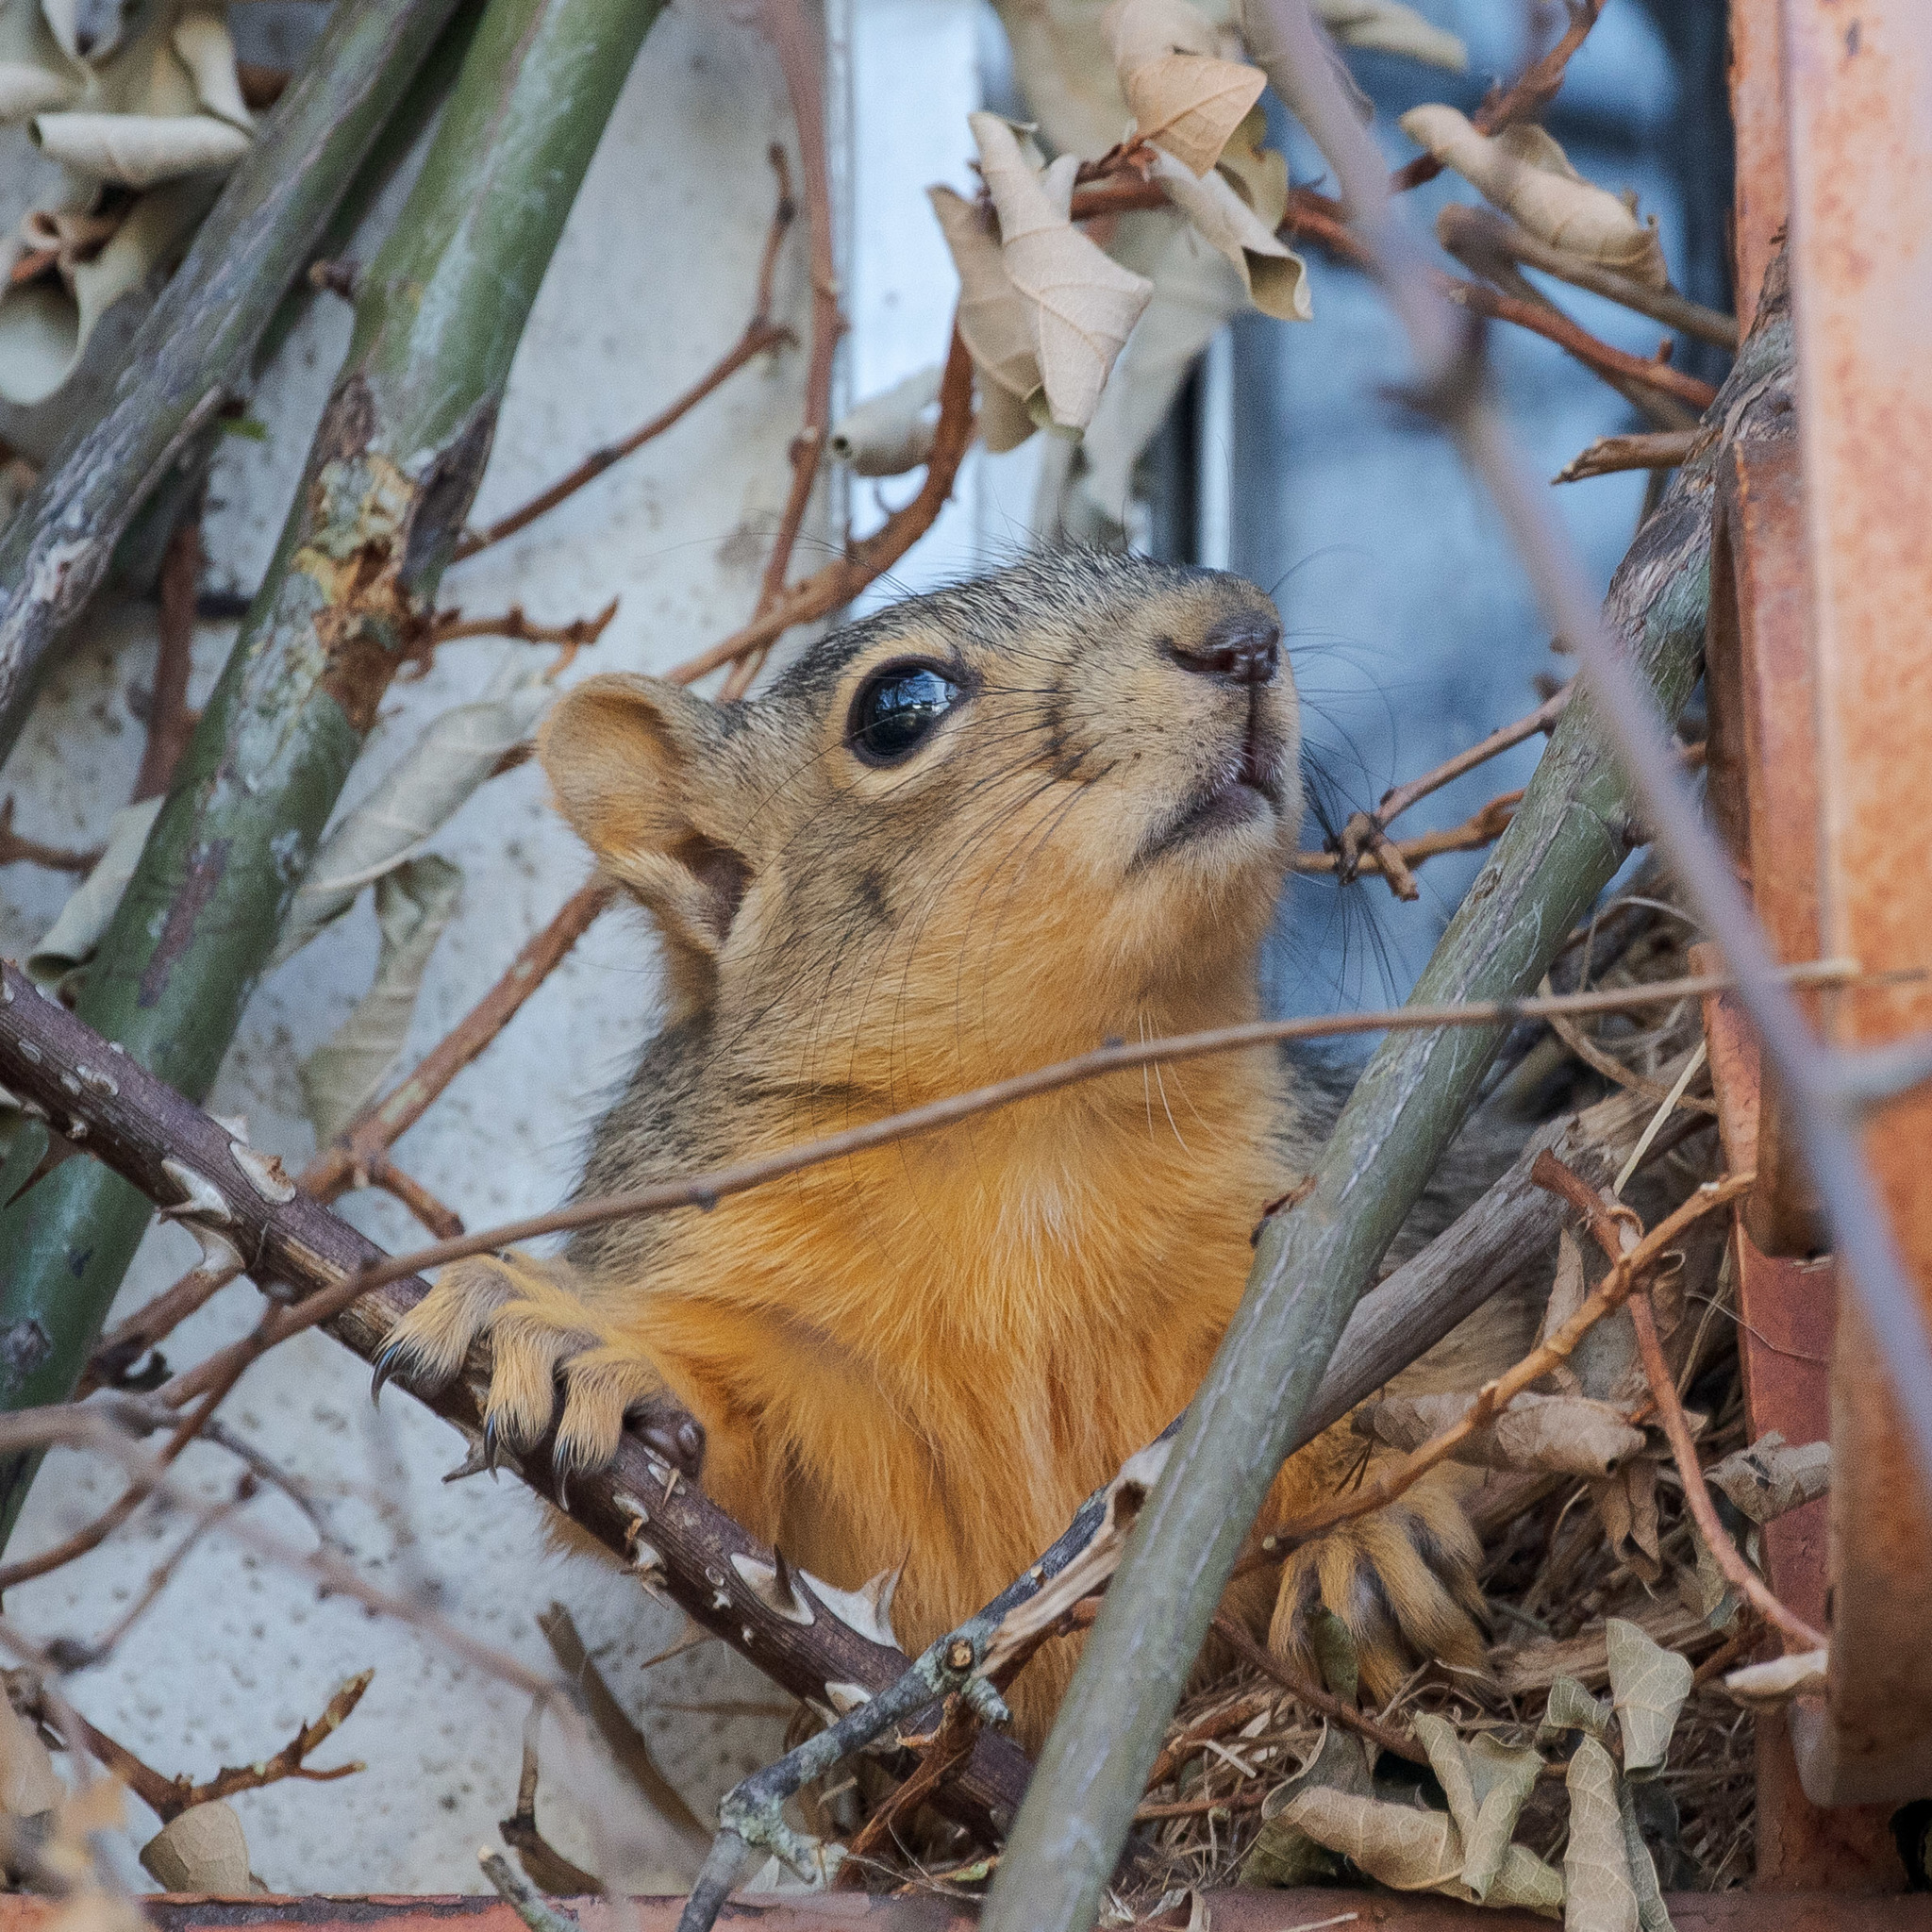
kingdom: Animalia
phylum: Chordata
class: Mammalia
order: Rodentia
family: Sciuridae
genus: Sciurus
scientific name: Sciurus niger
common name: Fox squirrel
